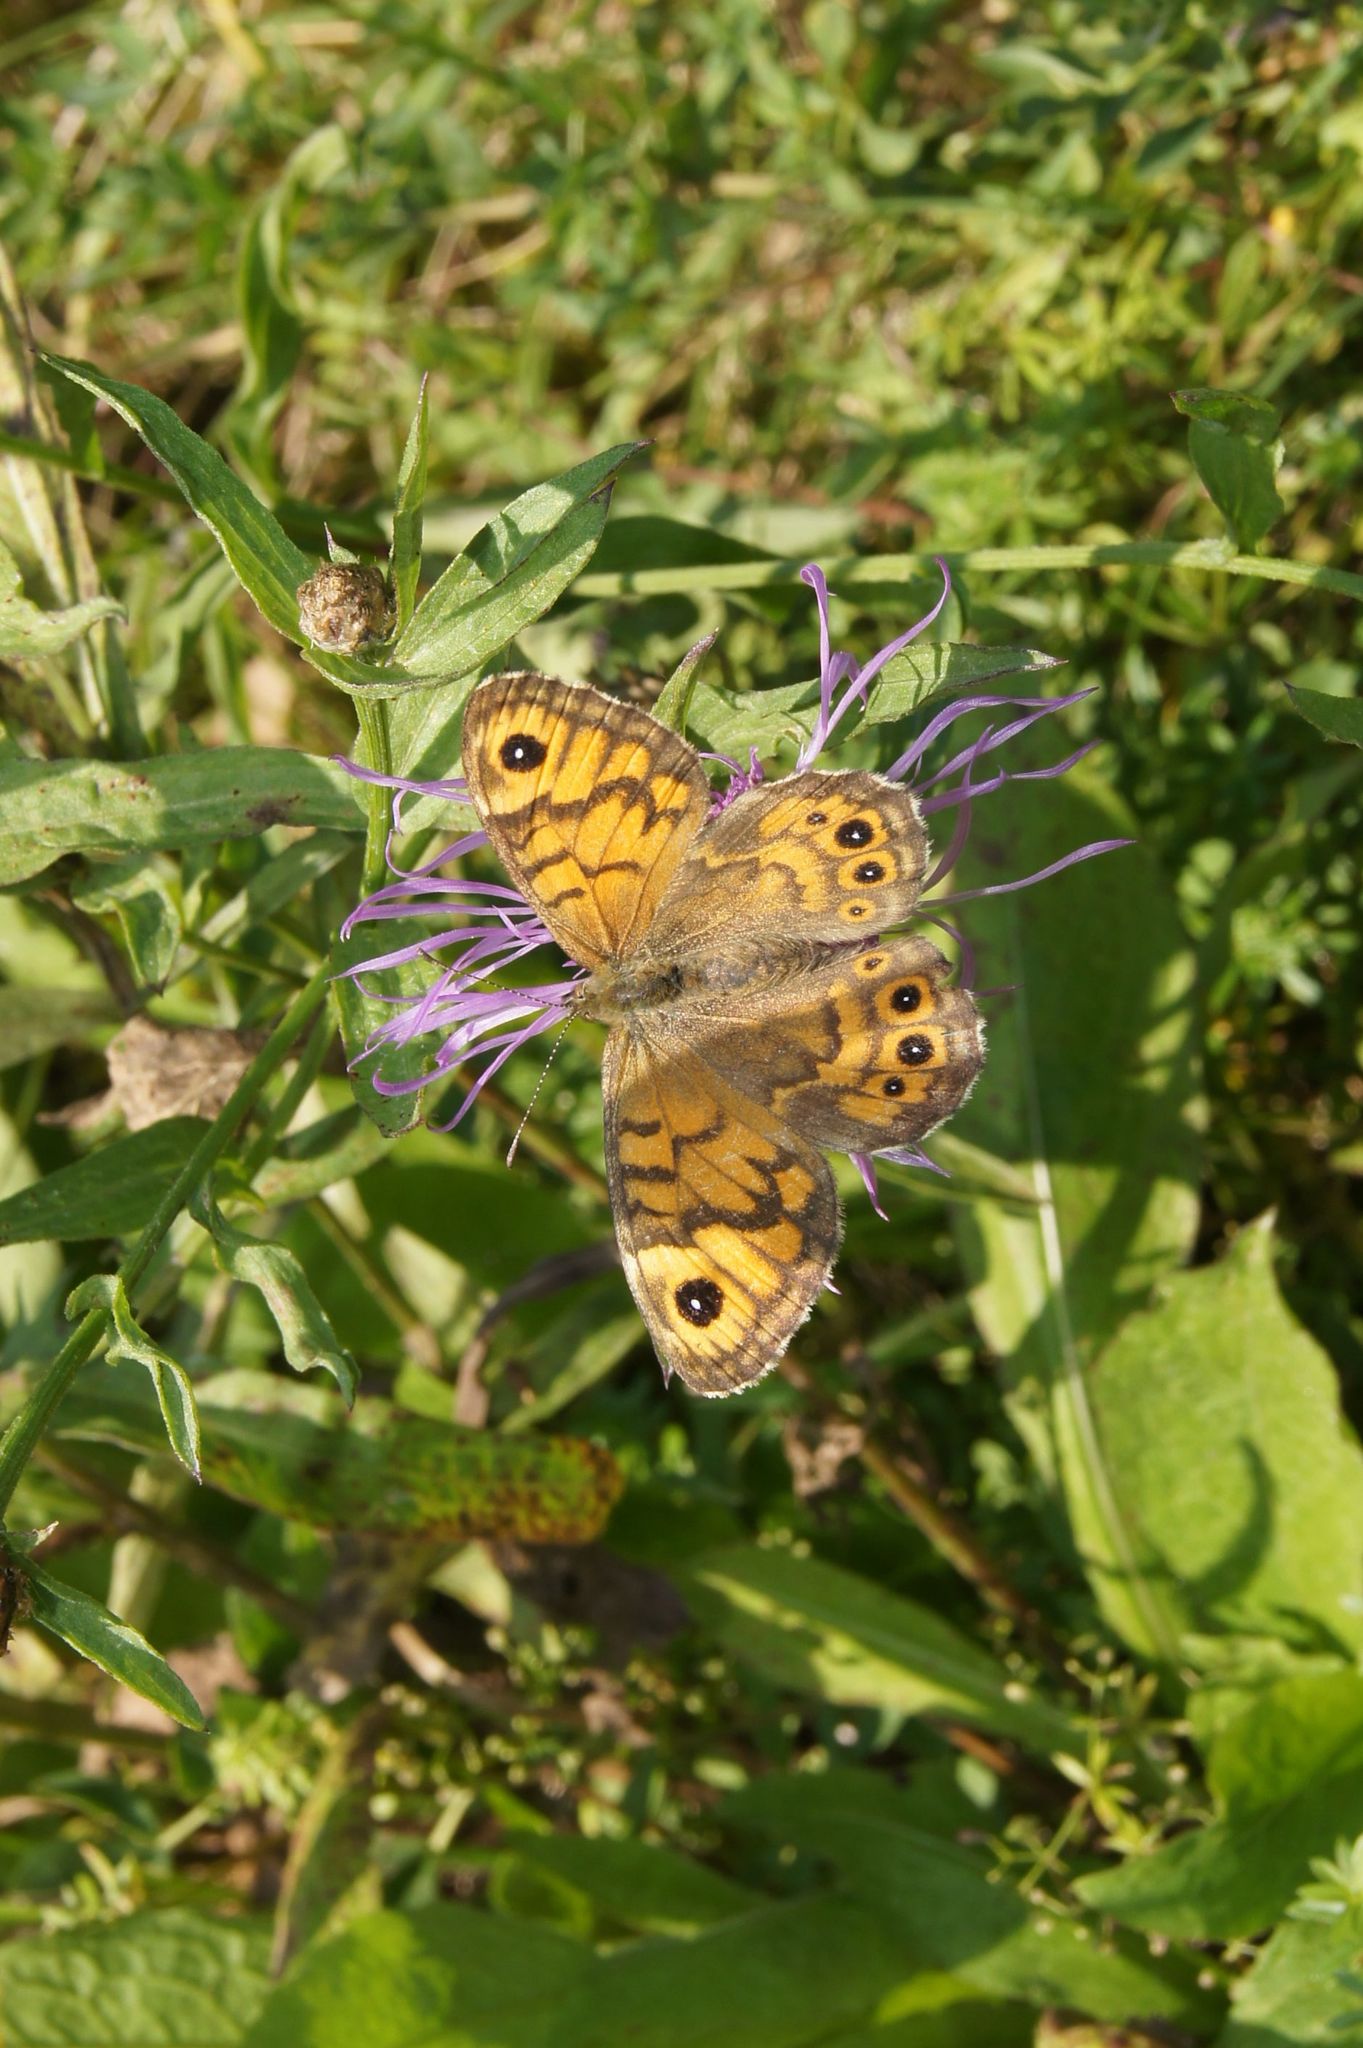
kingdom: Animalia
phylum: Arthropoda
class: Insecta
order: Lepidoptera
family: Nymphalidae
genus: Pararge
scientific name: Pararge Lasiommata megera
